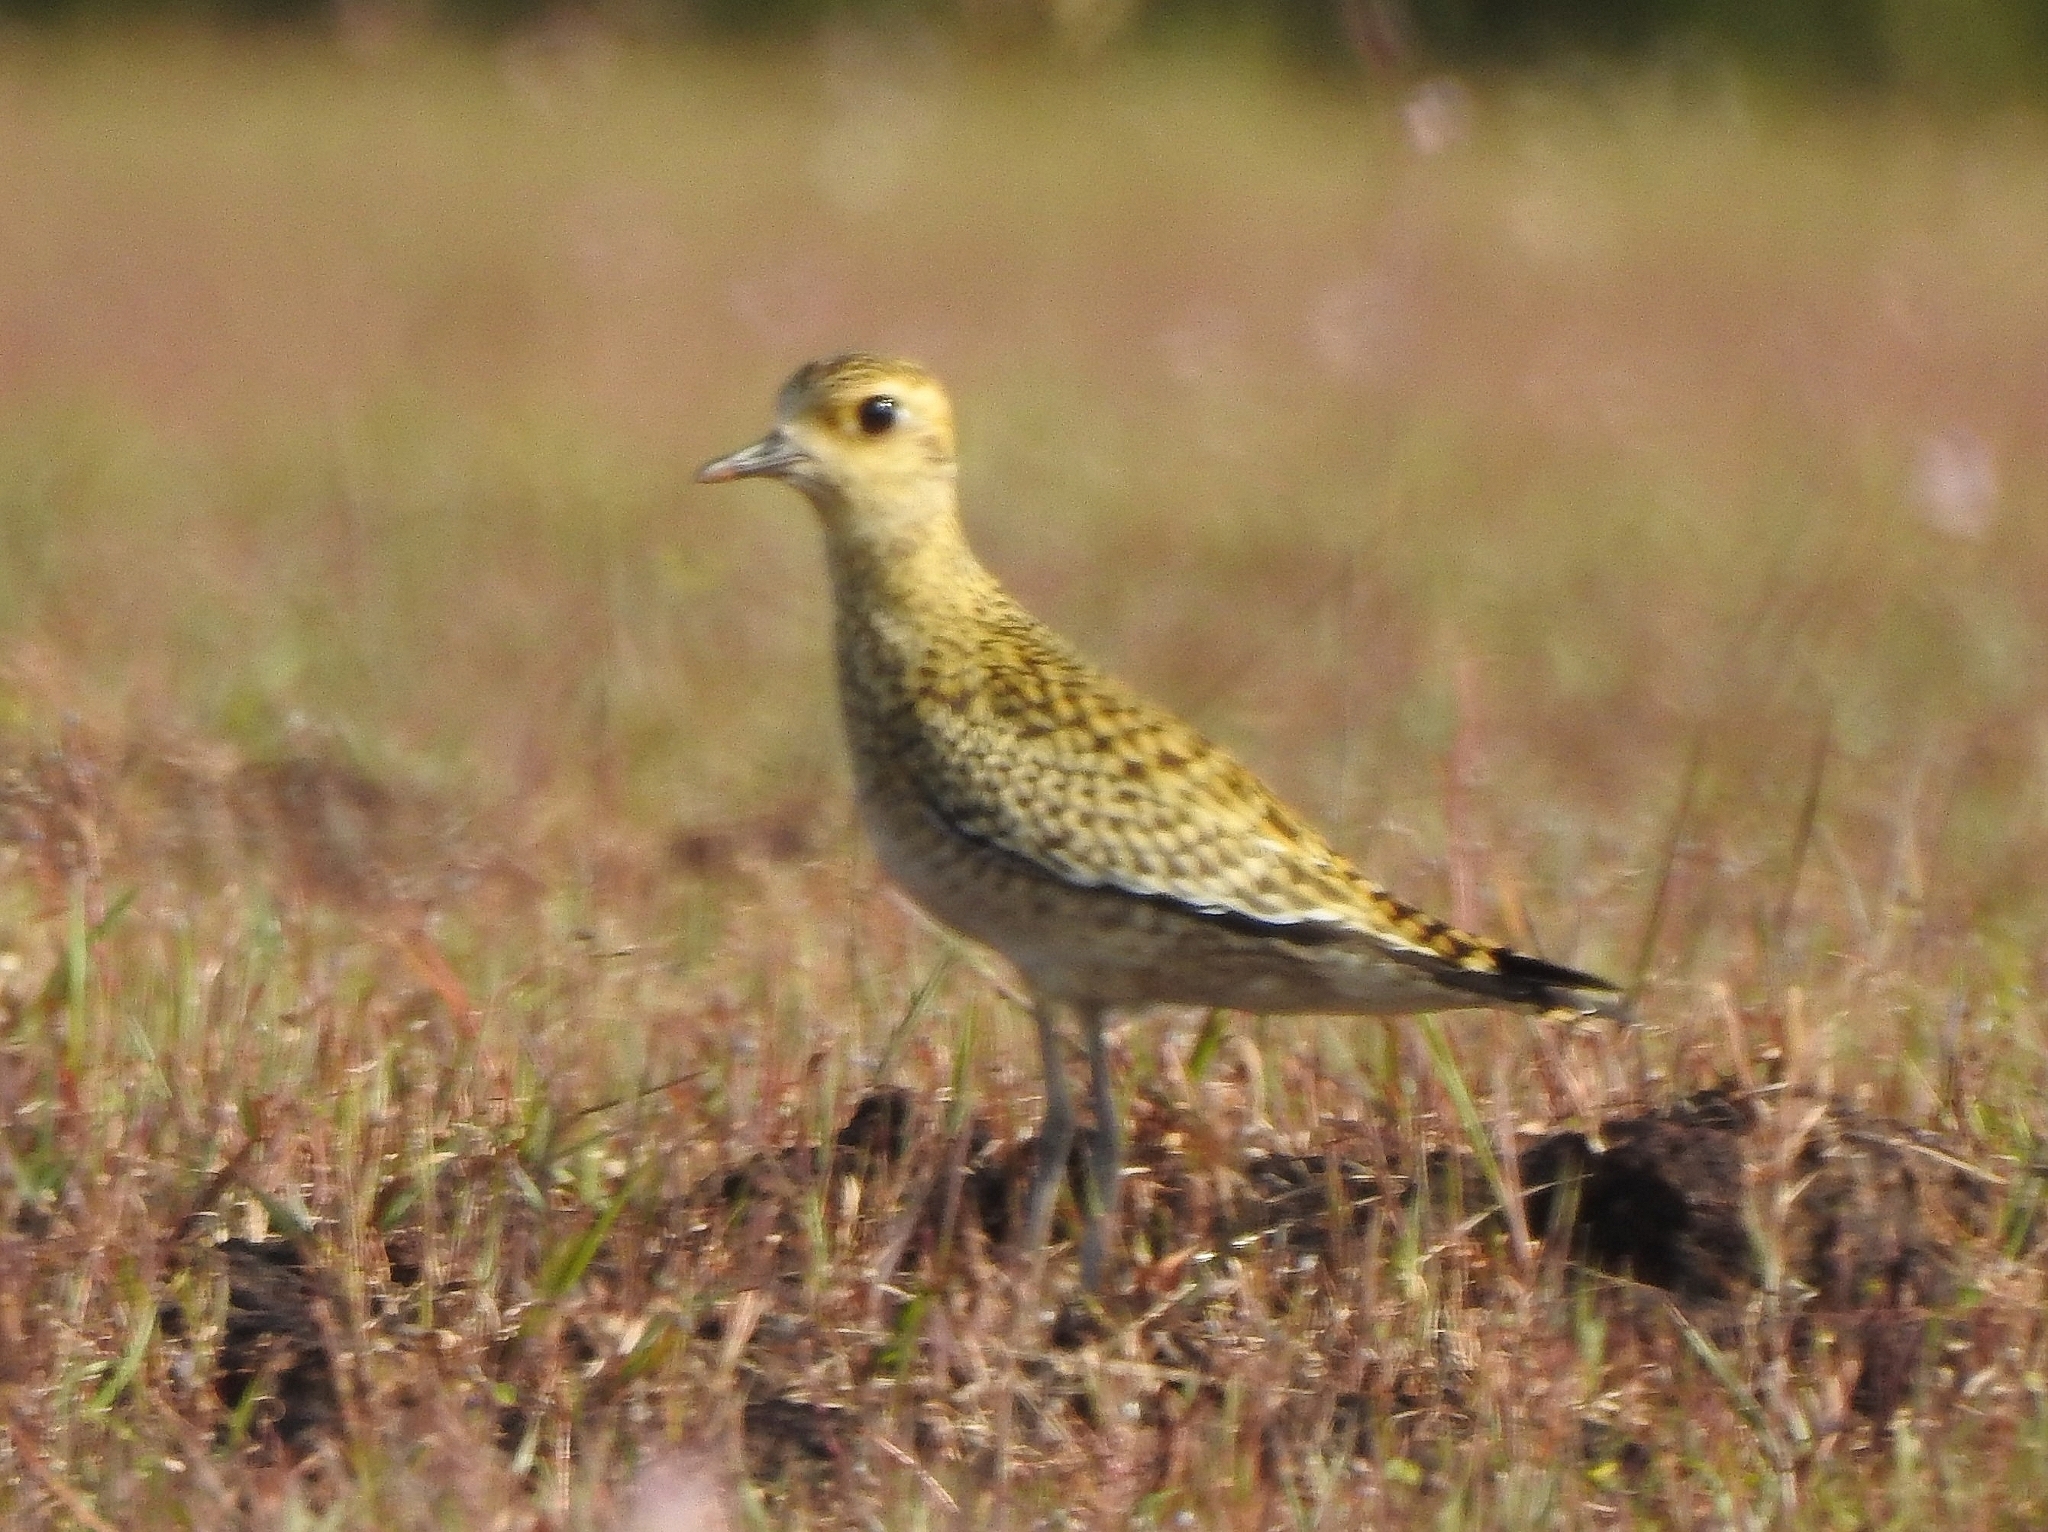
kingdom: Animalia
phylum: Chordata
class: Aves
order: Charadriiformes
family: Charadriidae
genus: Pluvialis
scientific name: Pluvialis fulva
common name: Pacific golden plover
